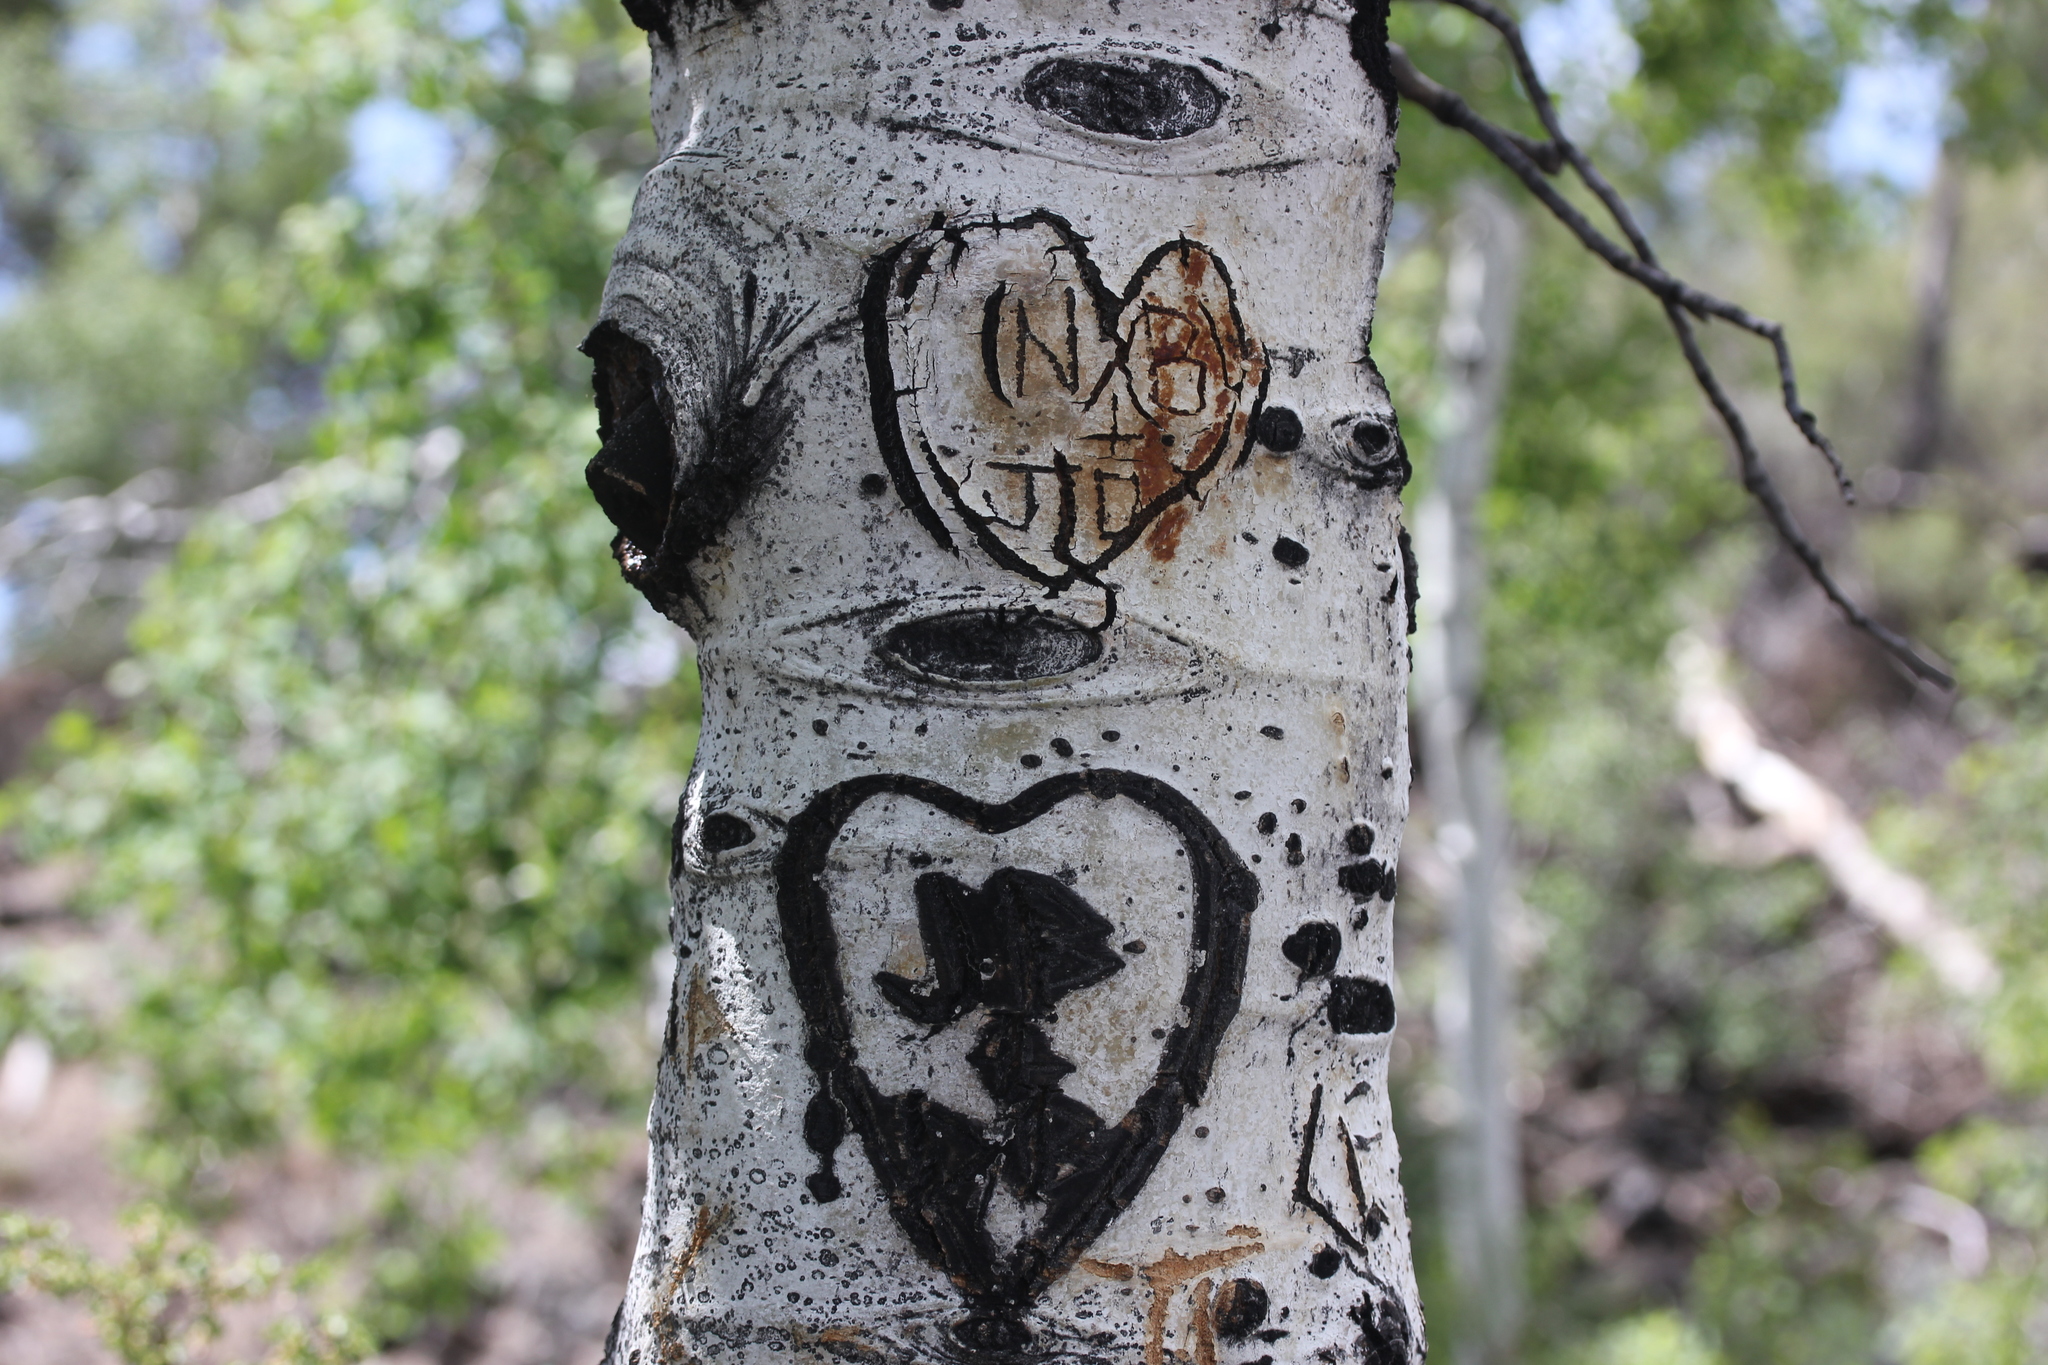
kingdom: Plantae
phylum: Tracheophyta
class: Magnoliopsida
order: Malpighiales
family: Salicaceae
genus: Populus
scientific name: Populus tremuloides
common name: Quaking aspen
